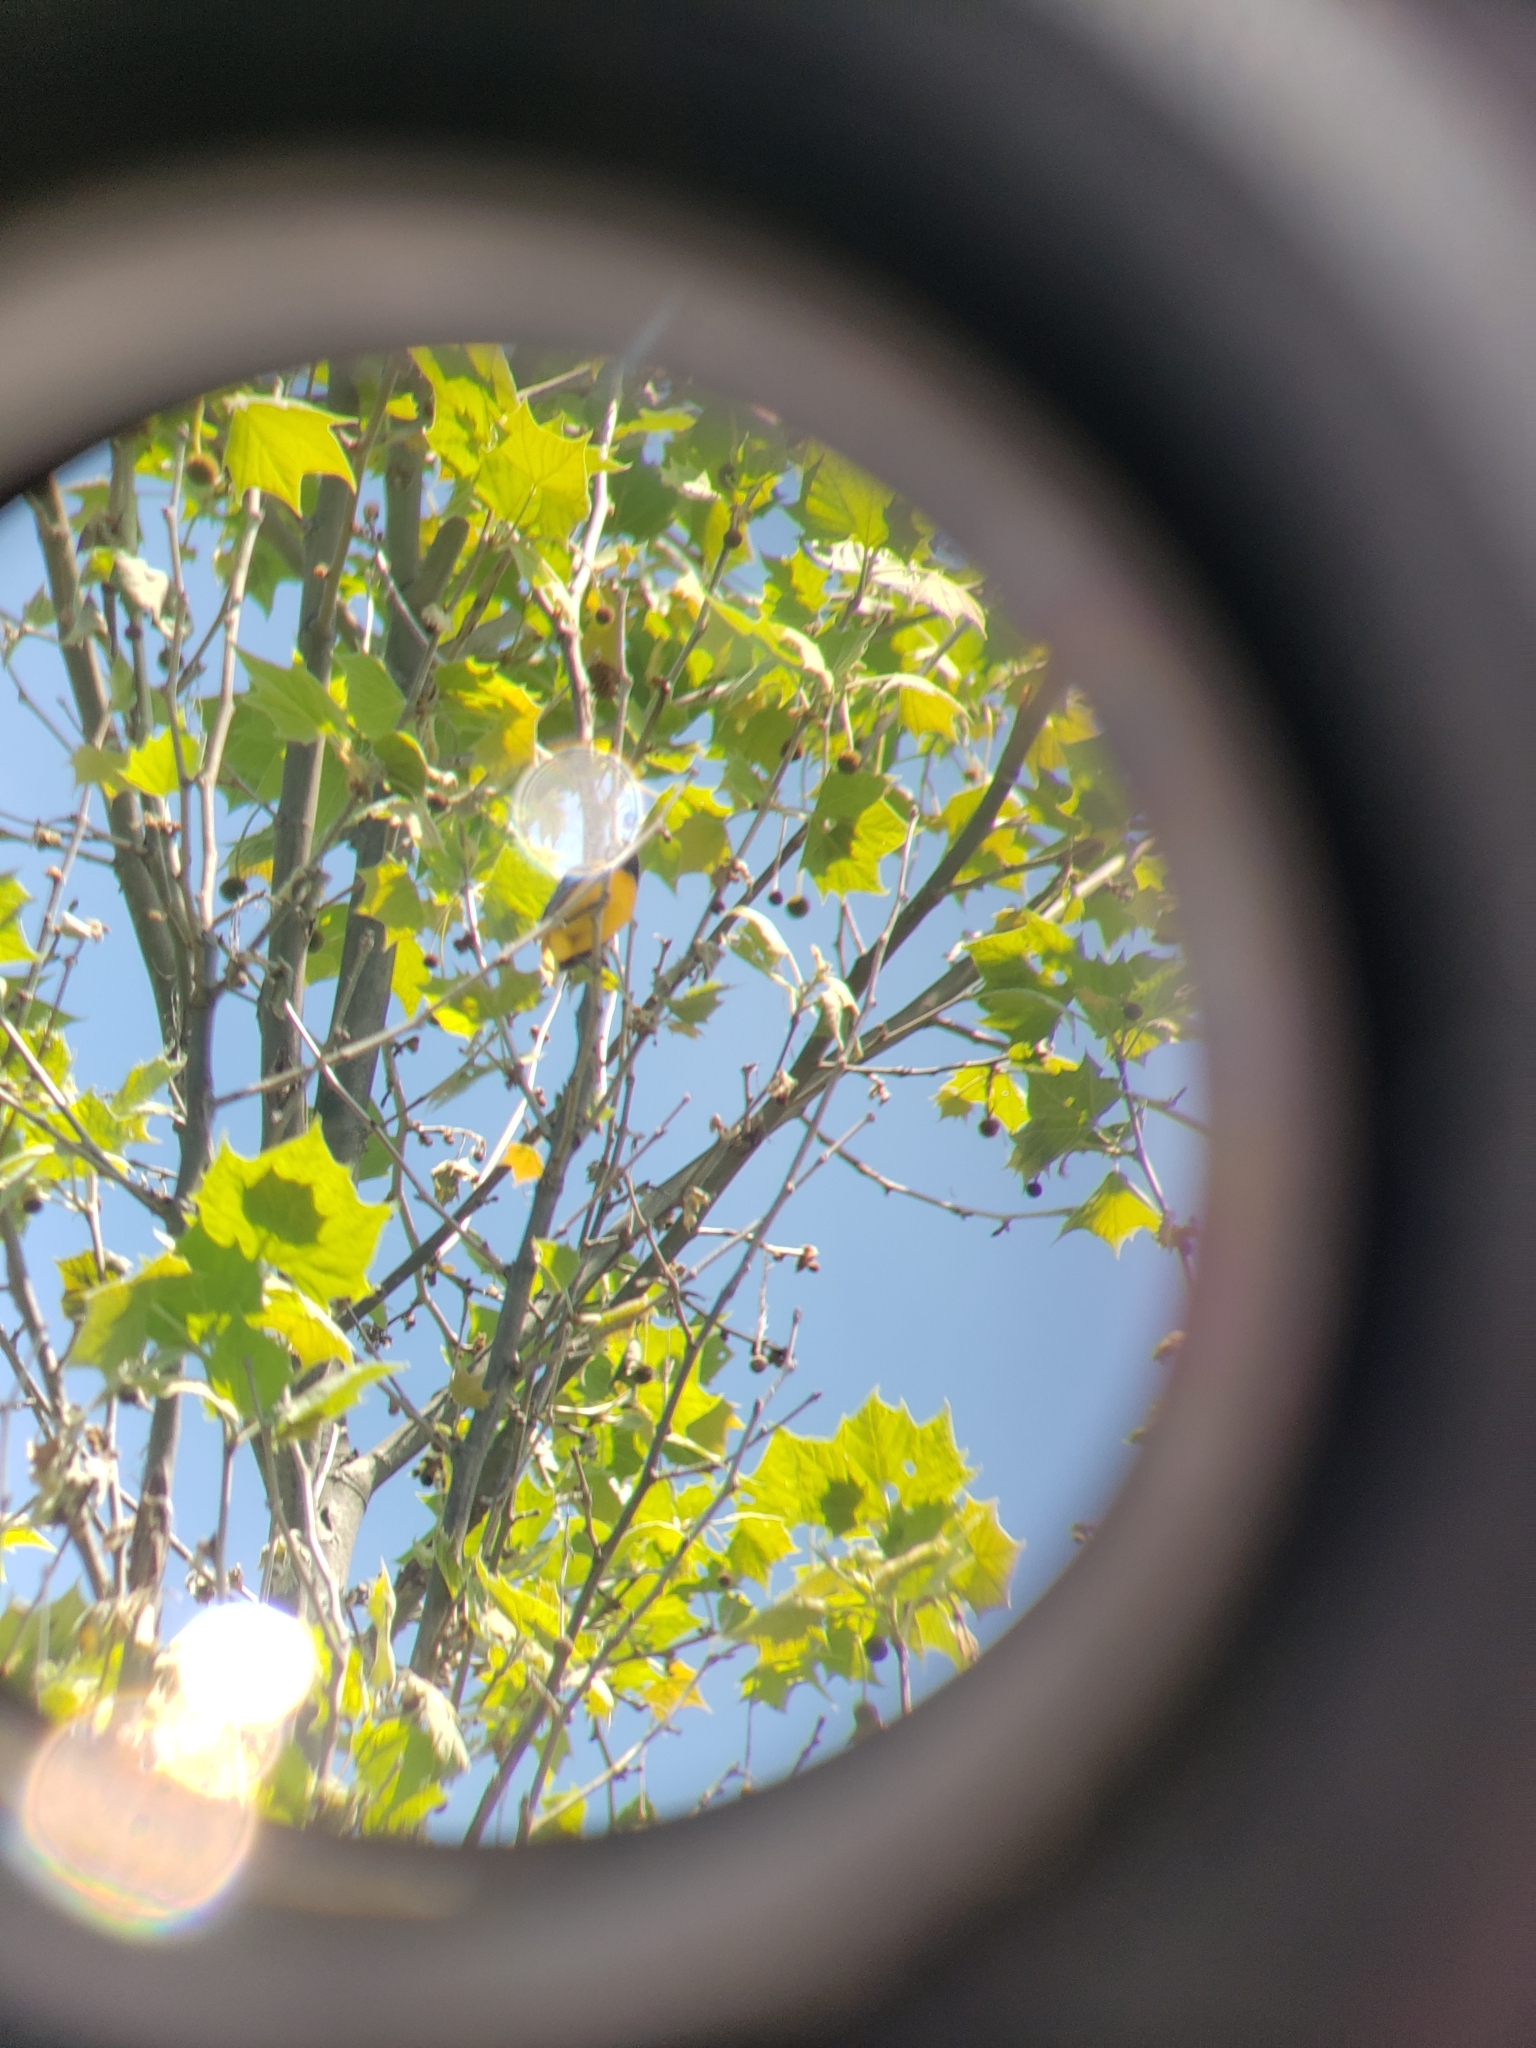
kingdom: Animalia
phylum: Chordata
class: Aves
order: Passeriformes
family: Icteridae
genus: Icterus
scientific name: Icterus galbula
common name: Baltimore oriole
